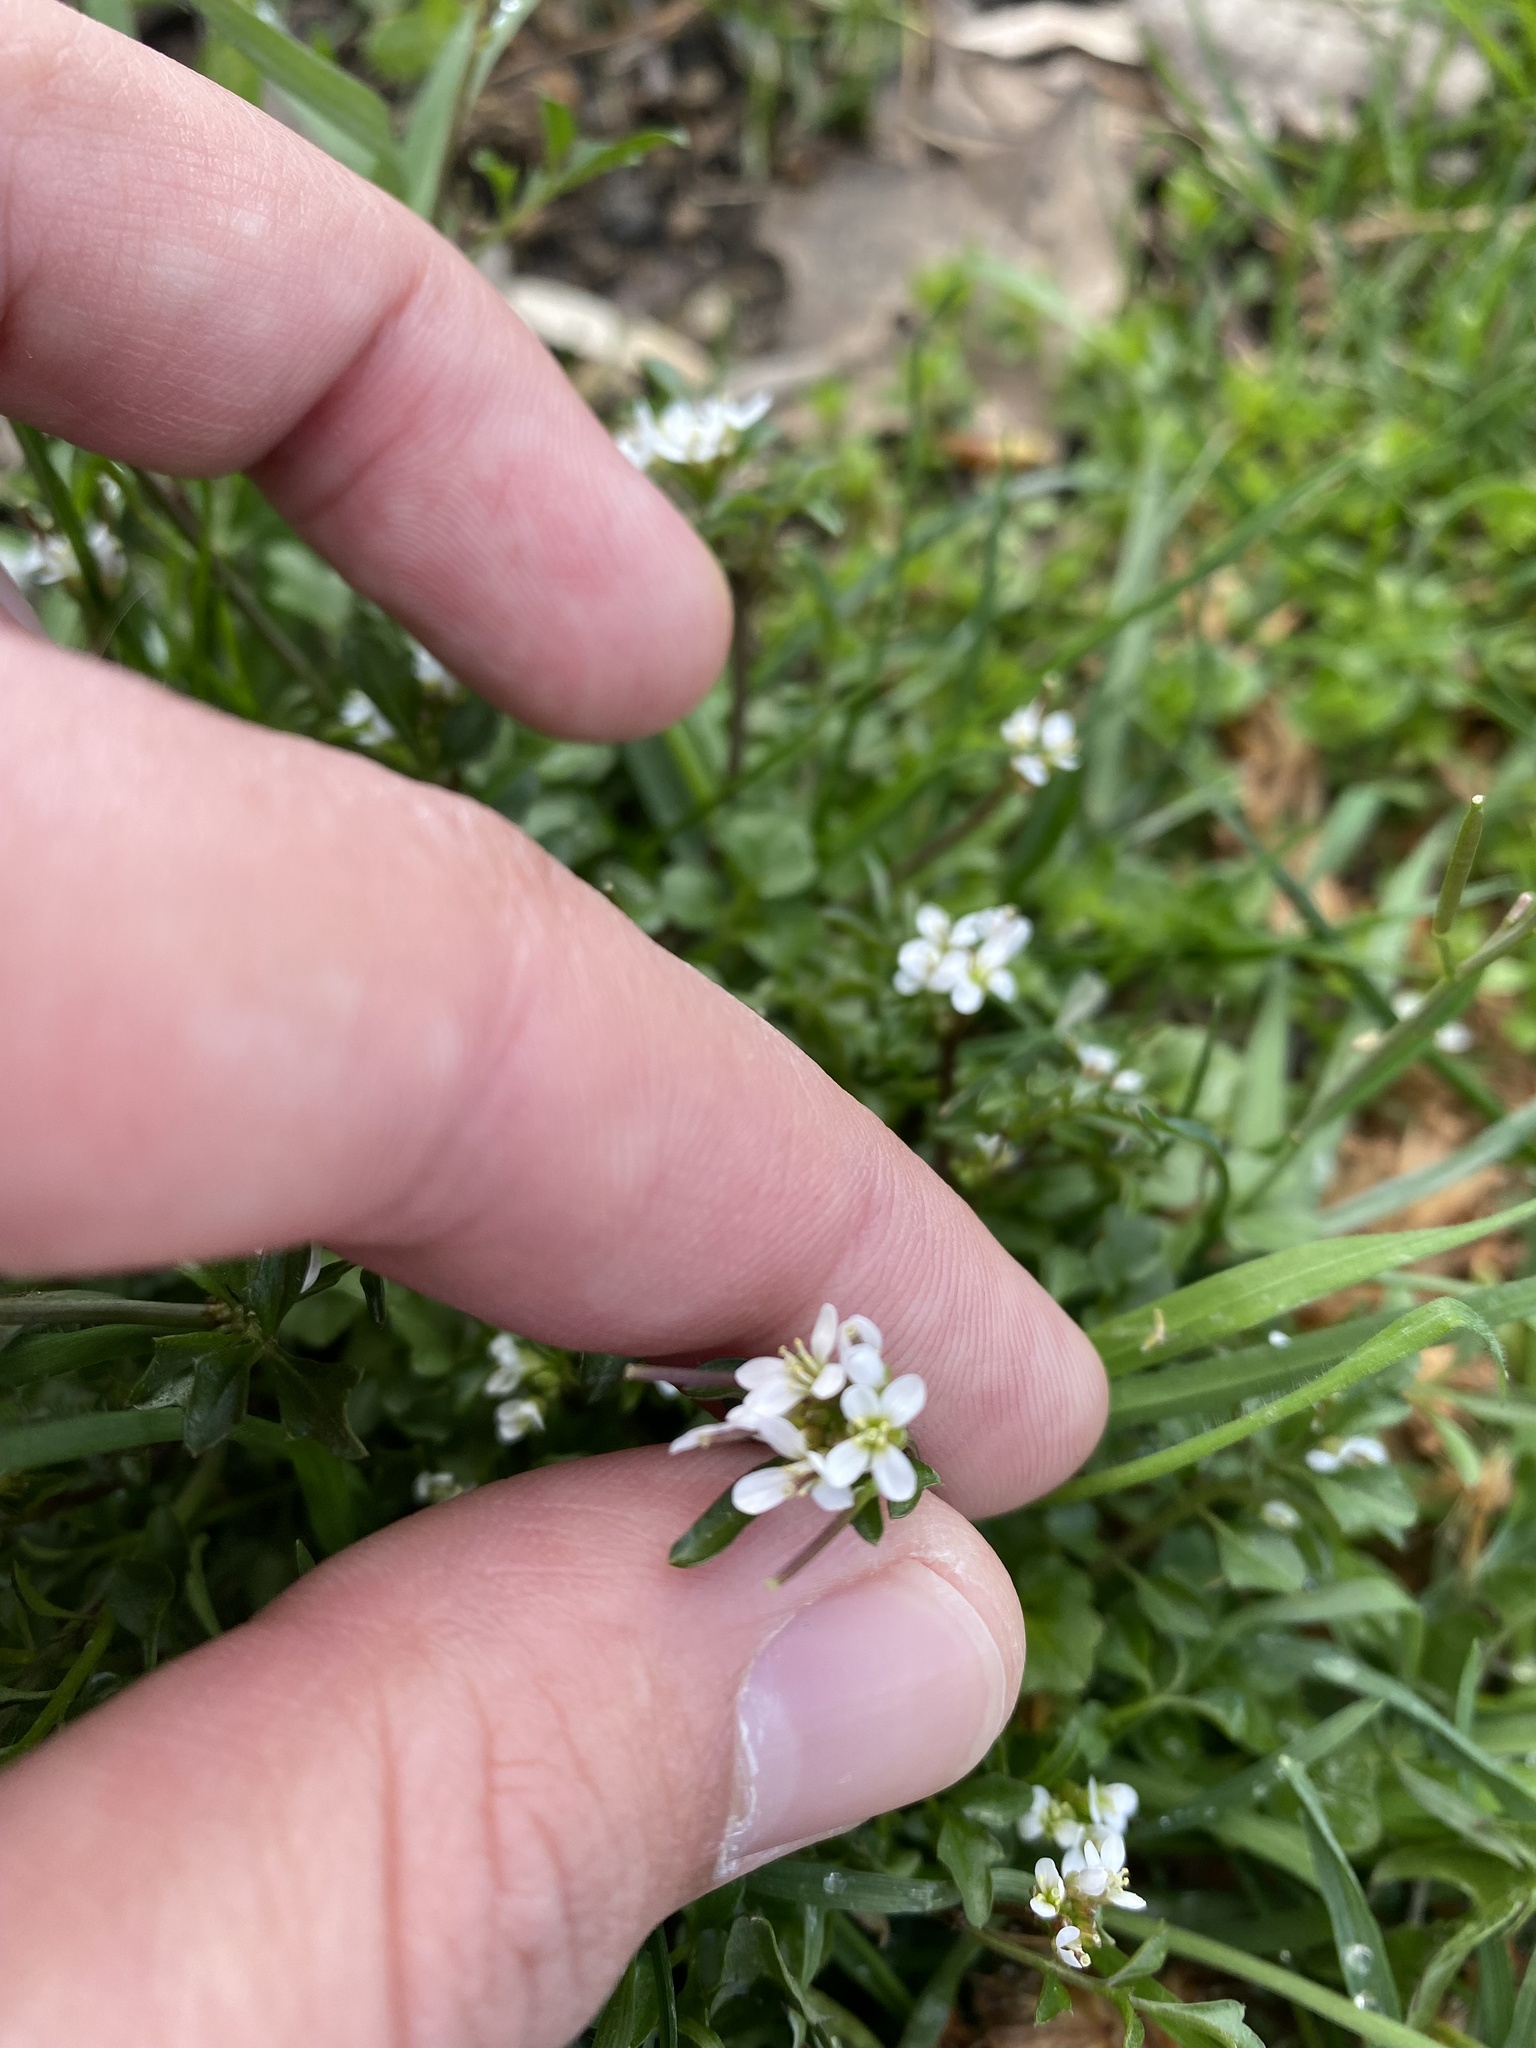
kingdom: Plantae
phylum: Tracheophyta
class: Magnoliopsida
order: Brassicales
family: Brassicaceae
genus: Cardamine
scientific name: Cardamine hirsuta
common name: Hairy bittercress
